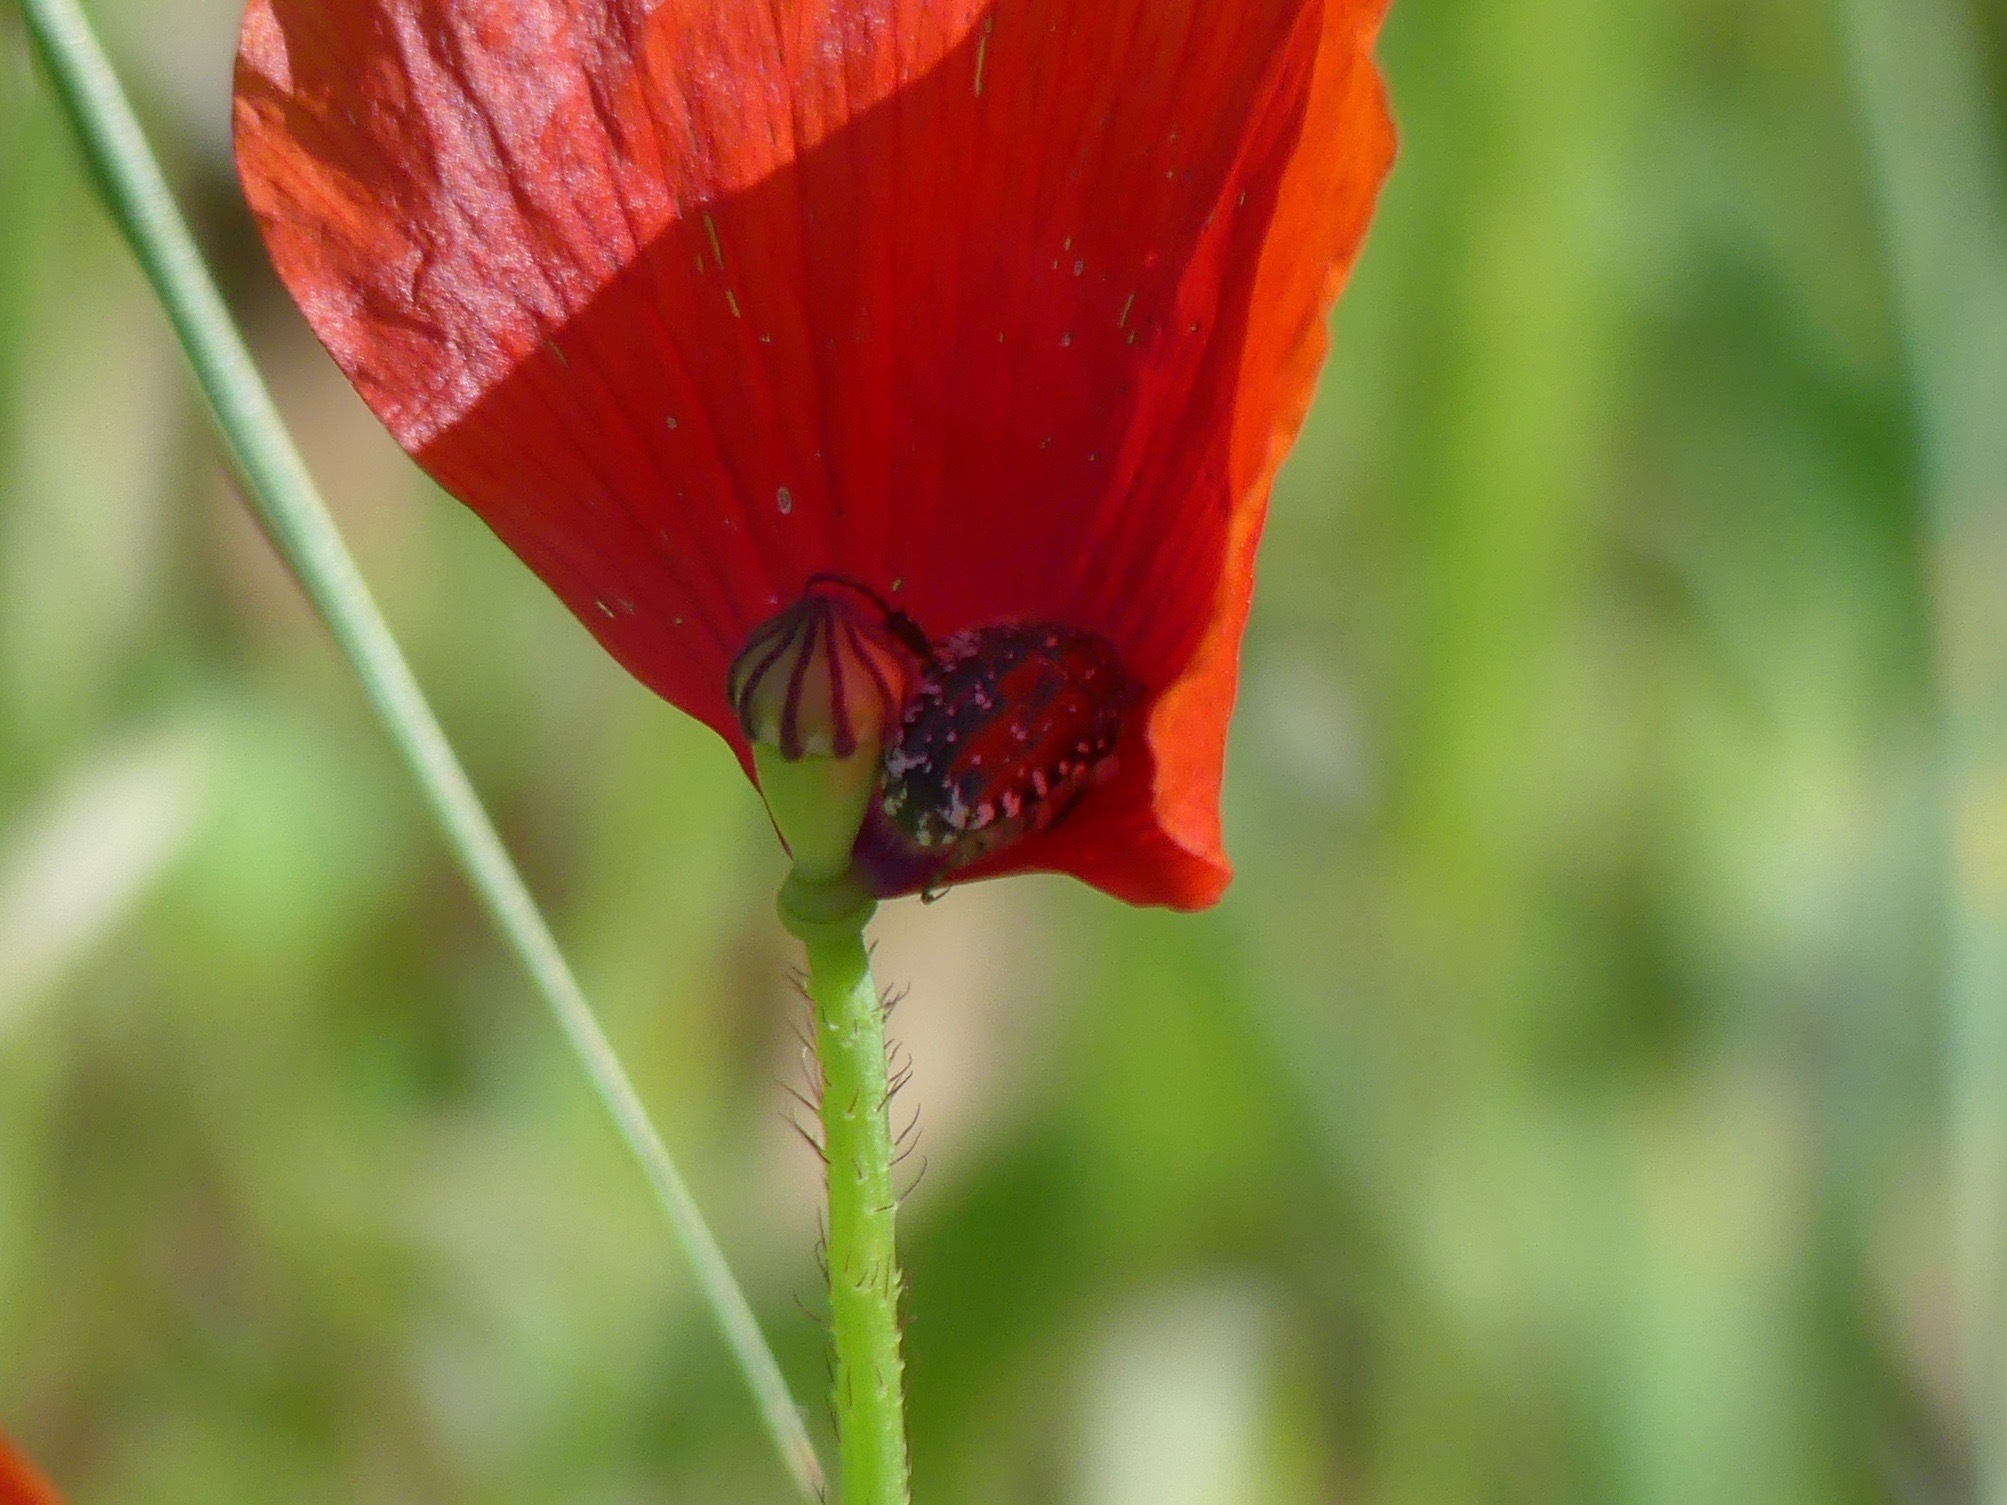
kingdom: Animalia
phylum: Arthropoda
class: Insecta
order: Coleoptera
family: Scarabaeidae
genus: Oxythyrea
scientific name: Oxythyrea funesta
